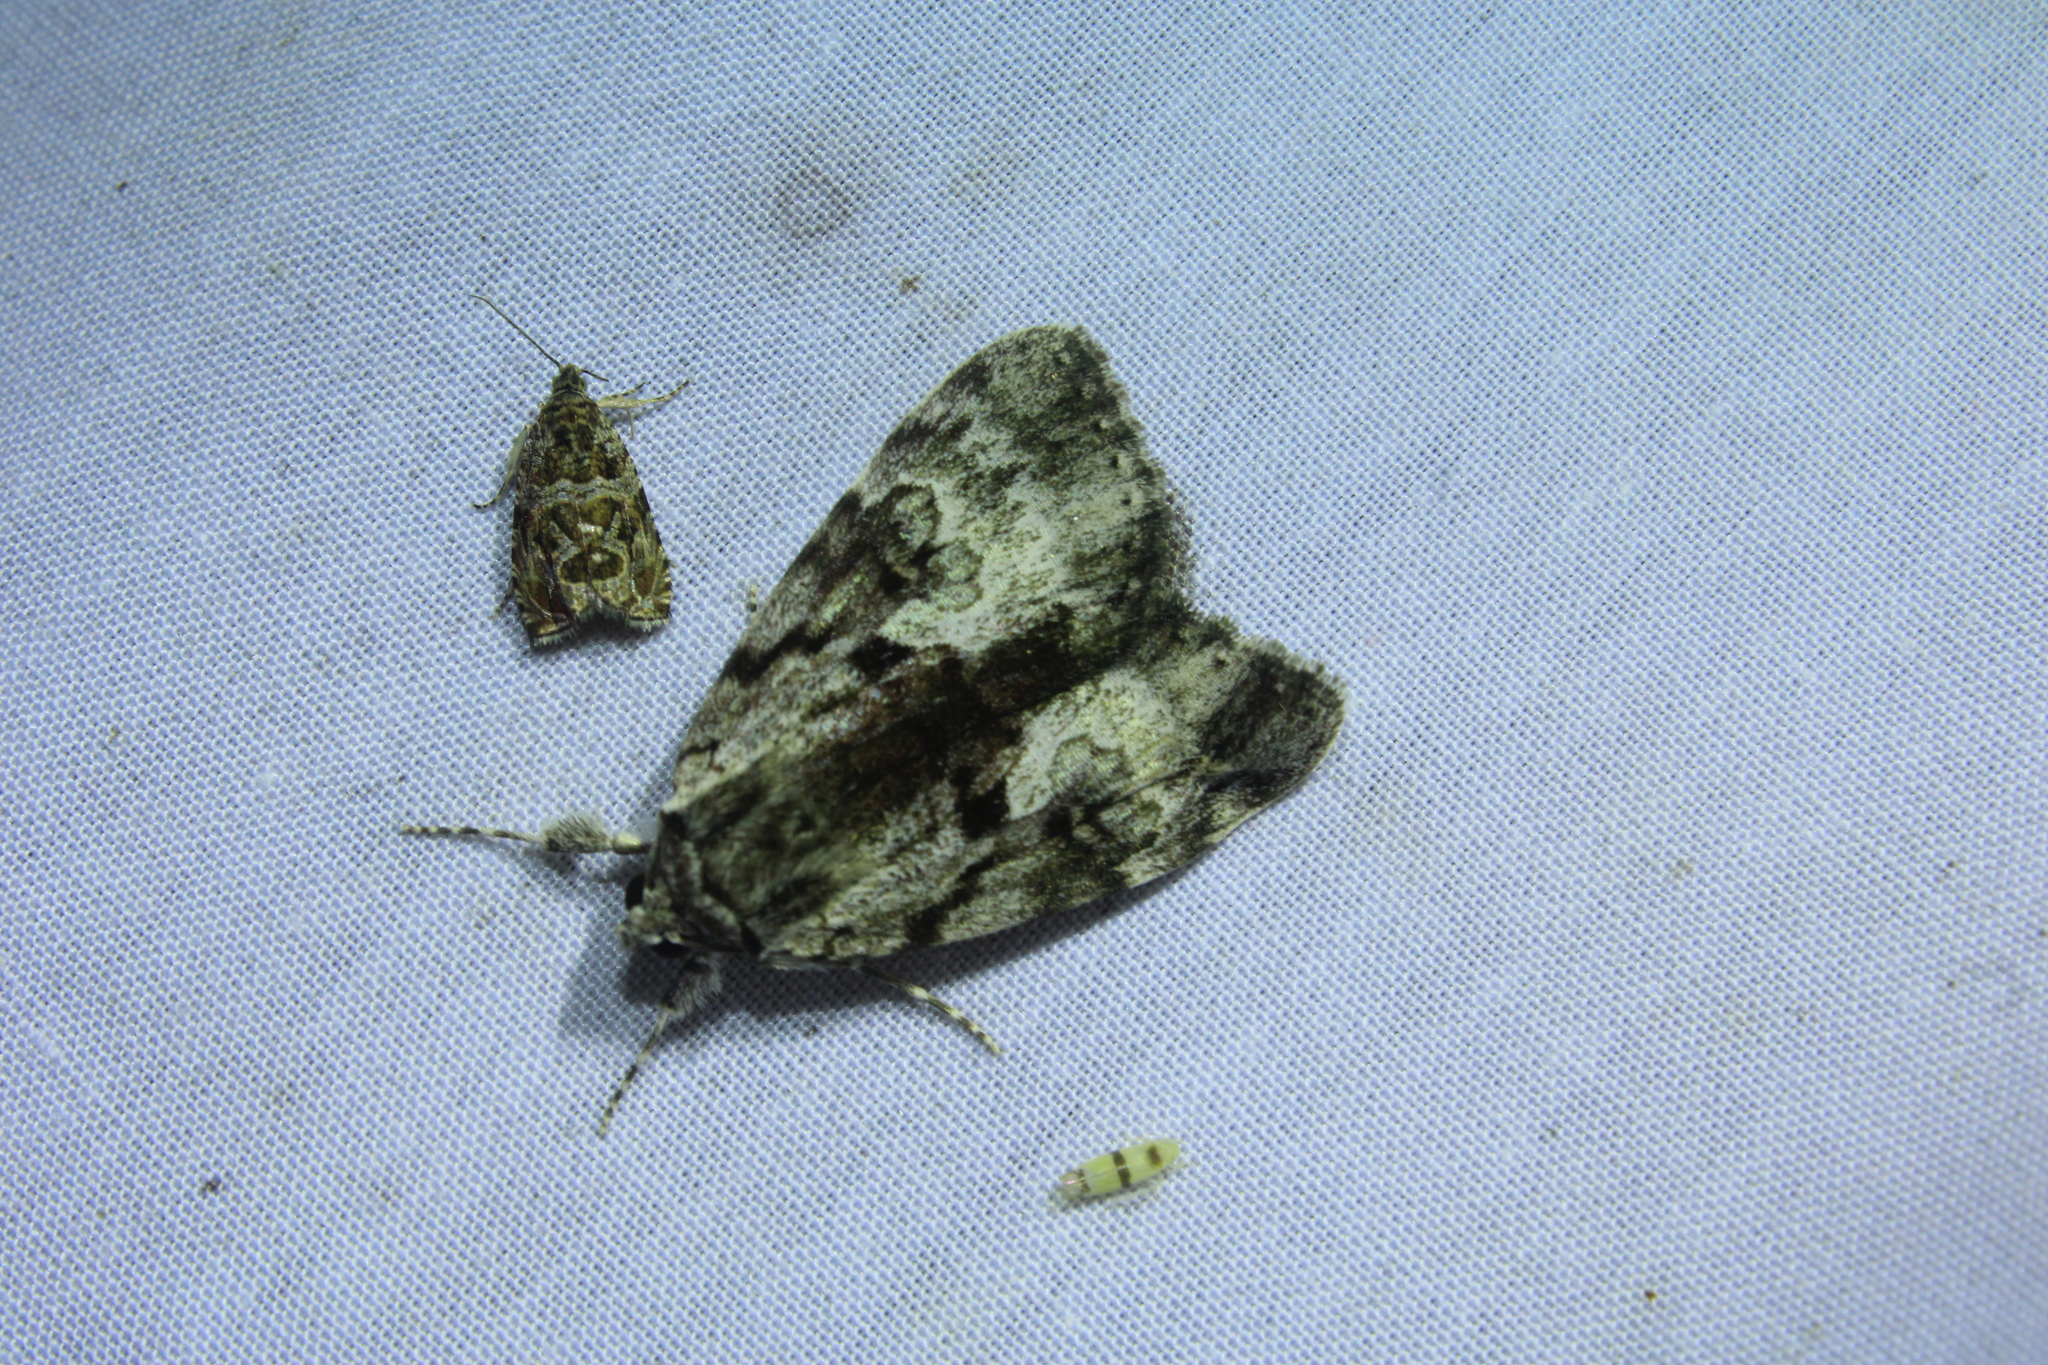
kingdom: Animalia
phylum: Arthropoda
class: Insecta
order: Lepidoptera
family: Erebidae
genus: Catocala
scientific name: Catocala andromedae
